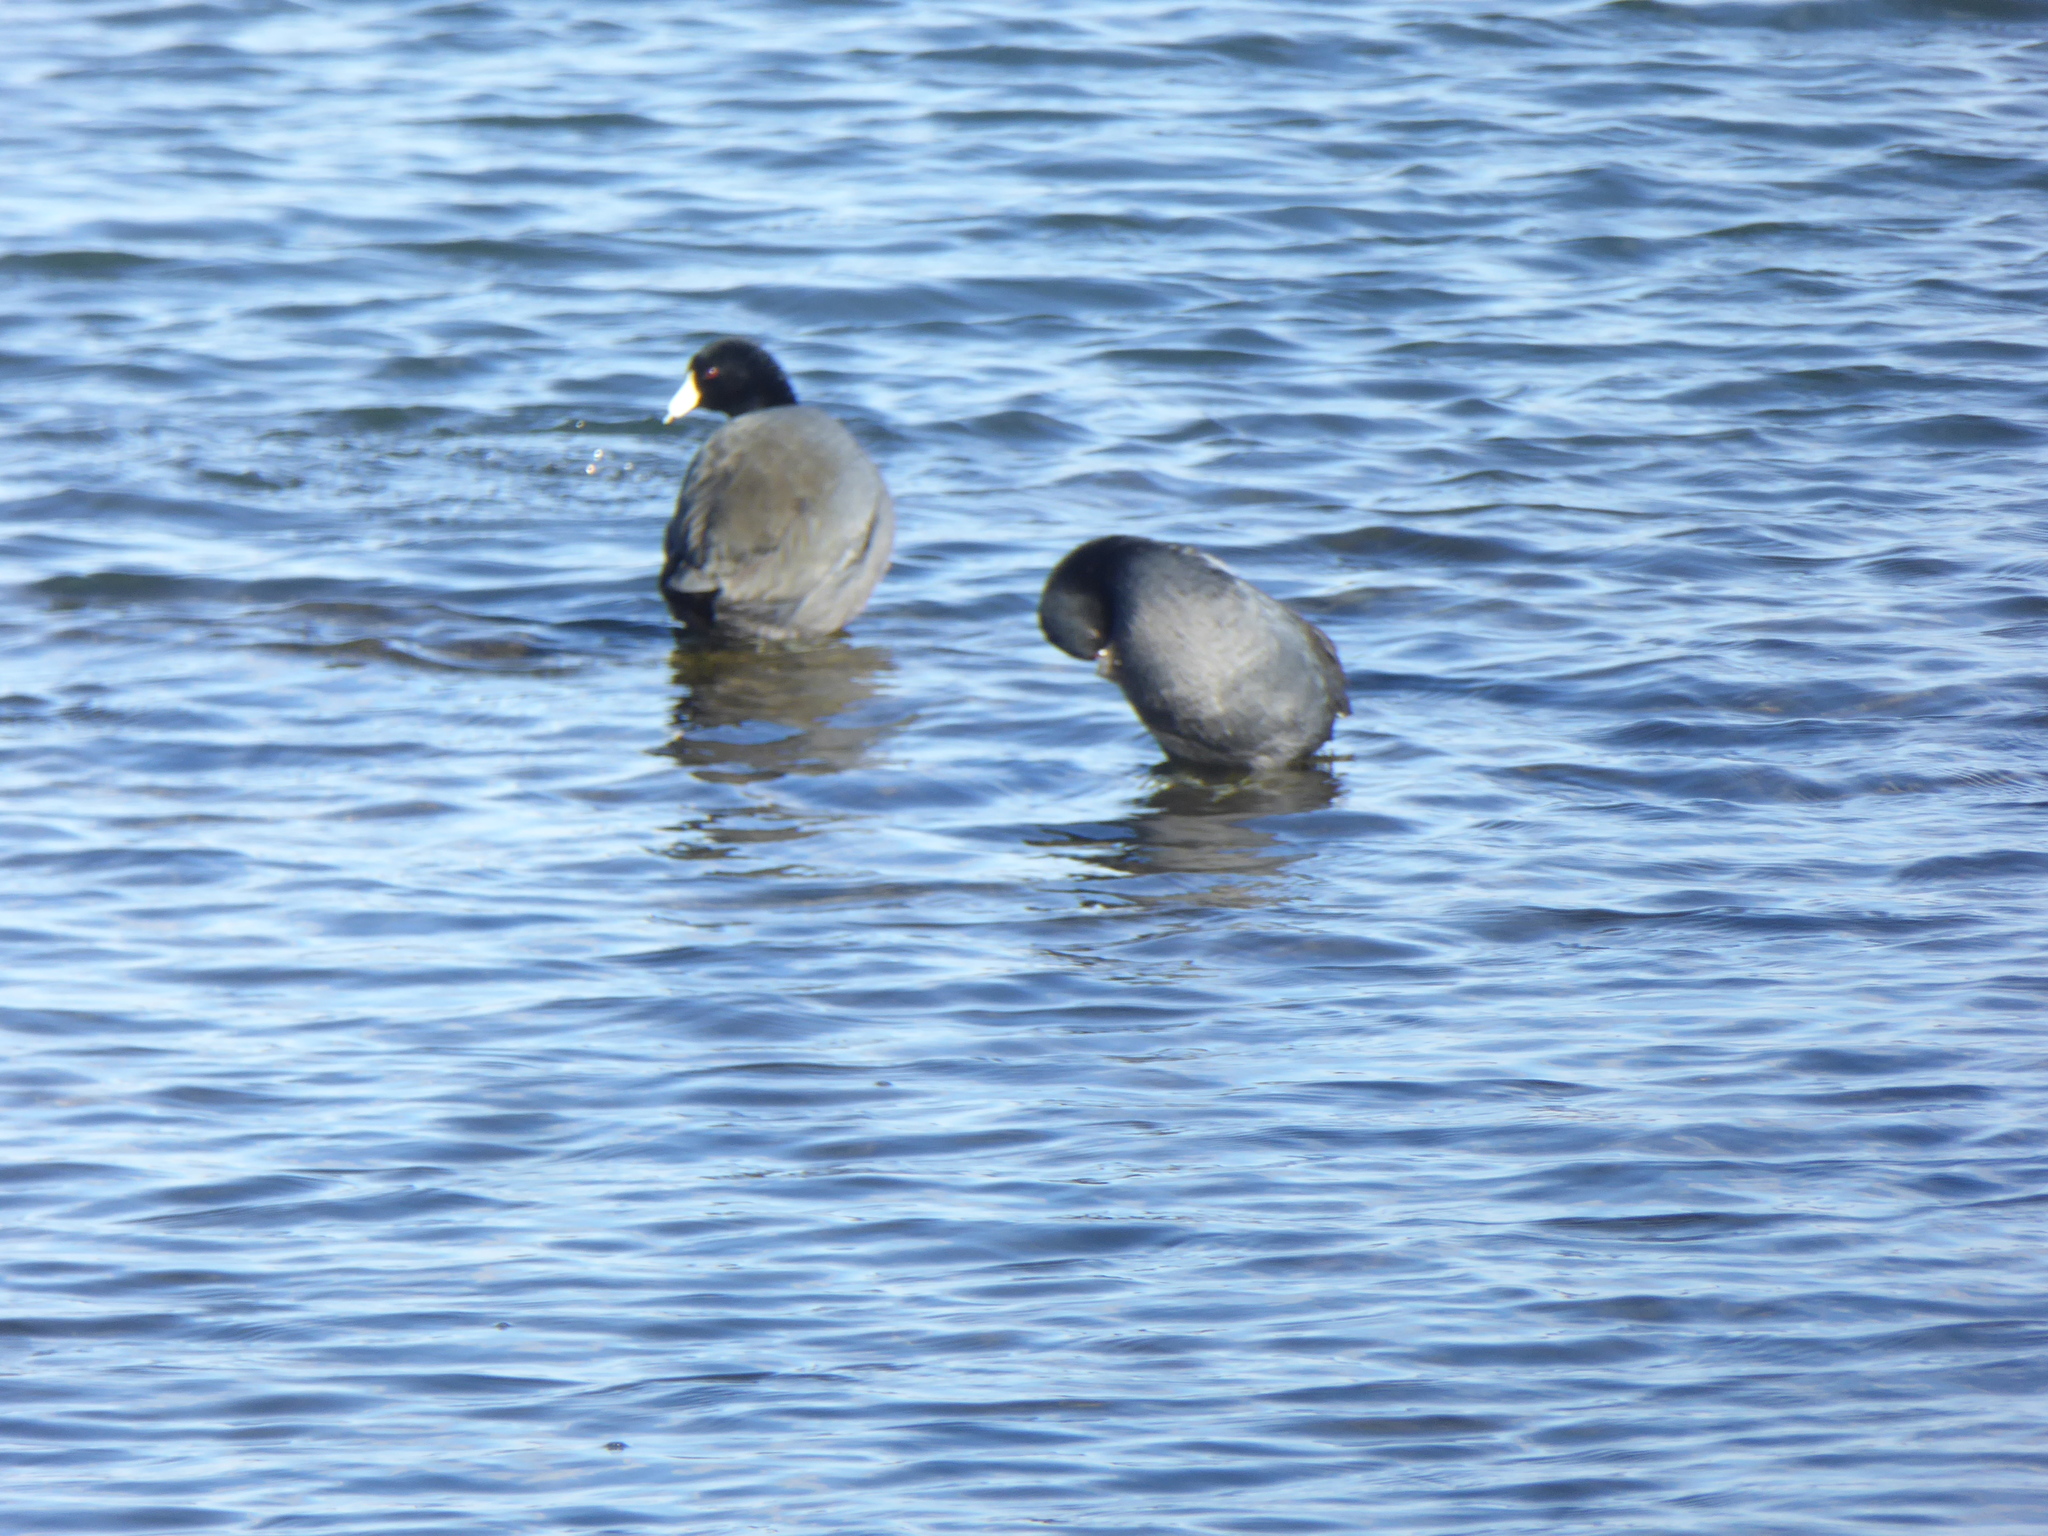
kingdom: Animalia
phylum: Chordata
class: Aves
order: Gruiformes
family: Rallidae
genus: Fulica
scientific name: Fulica americana
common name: American coot
